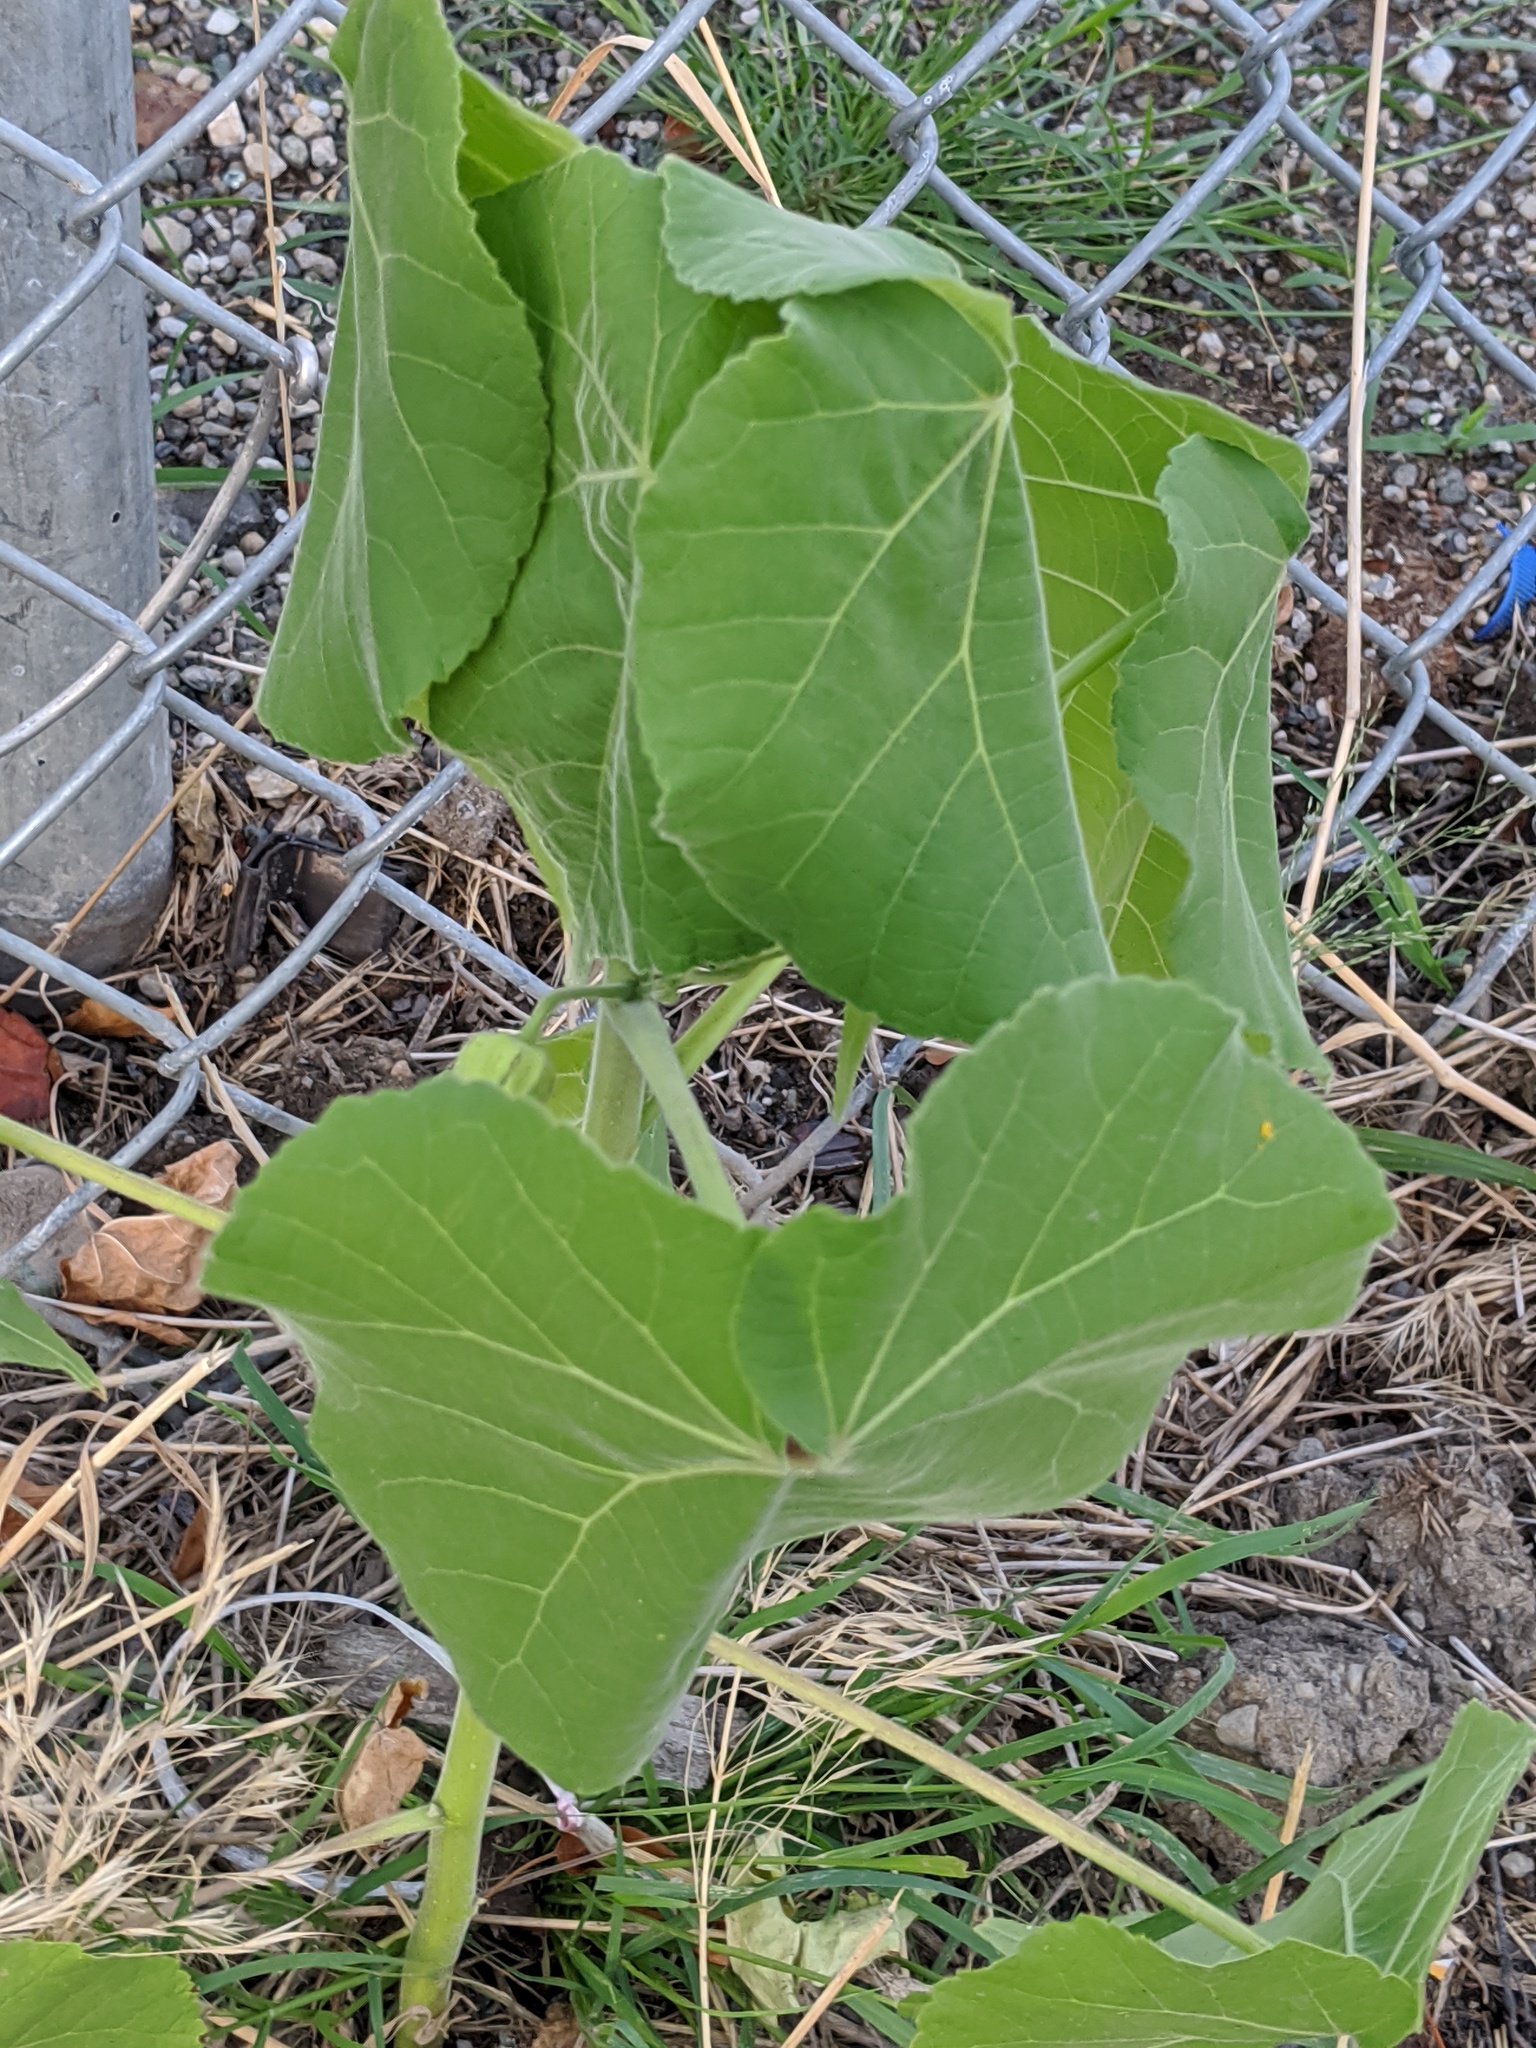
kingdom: Plantae
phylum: Tracheophyta
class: Magnoliopsida
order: Malvales
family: Malvaceae
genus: Abutilon
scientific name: Abutilon theophrasti
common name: Velvetleaf
